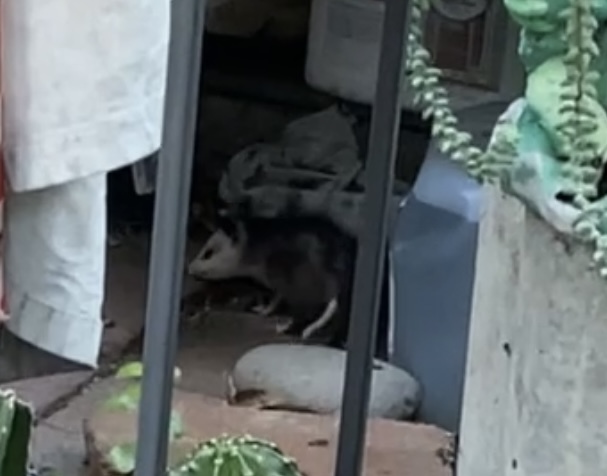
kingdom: Animalia
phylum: Chordata
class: Mammalia
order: Didelphimorphia
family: Didelphidae
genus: Didelphis
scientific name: Didelphis virginiana
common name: Virginia opossum
